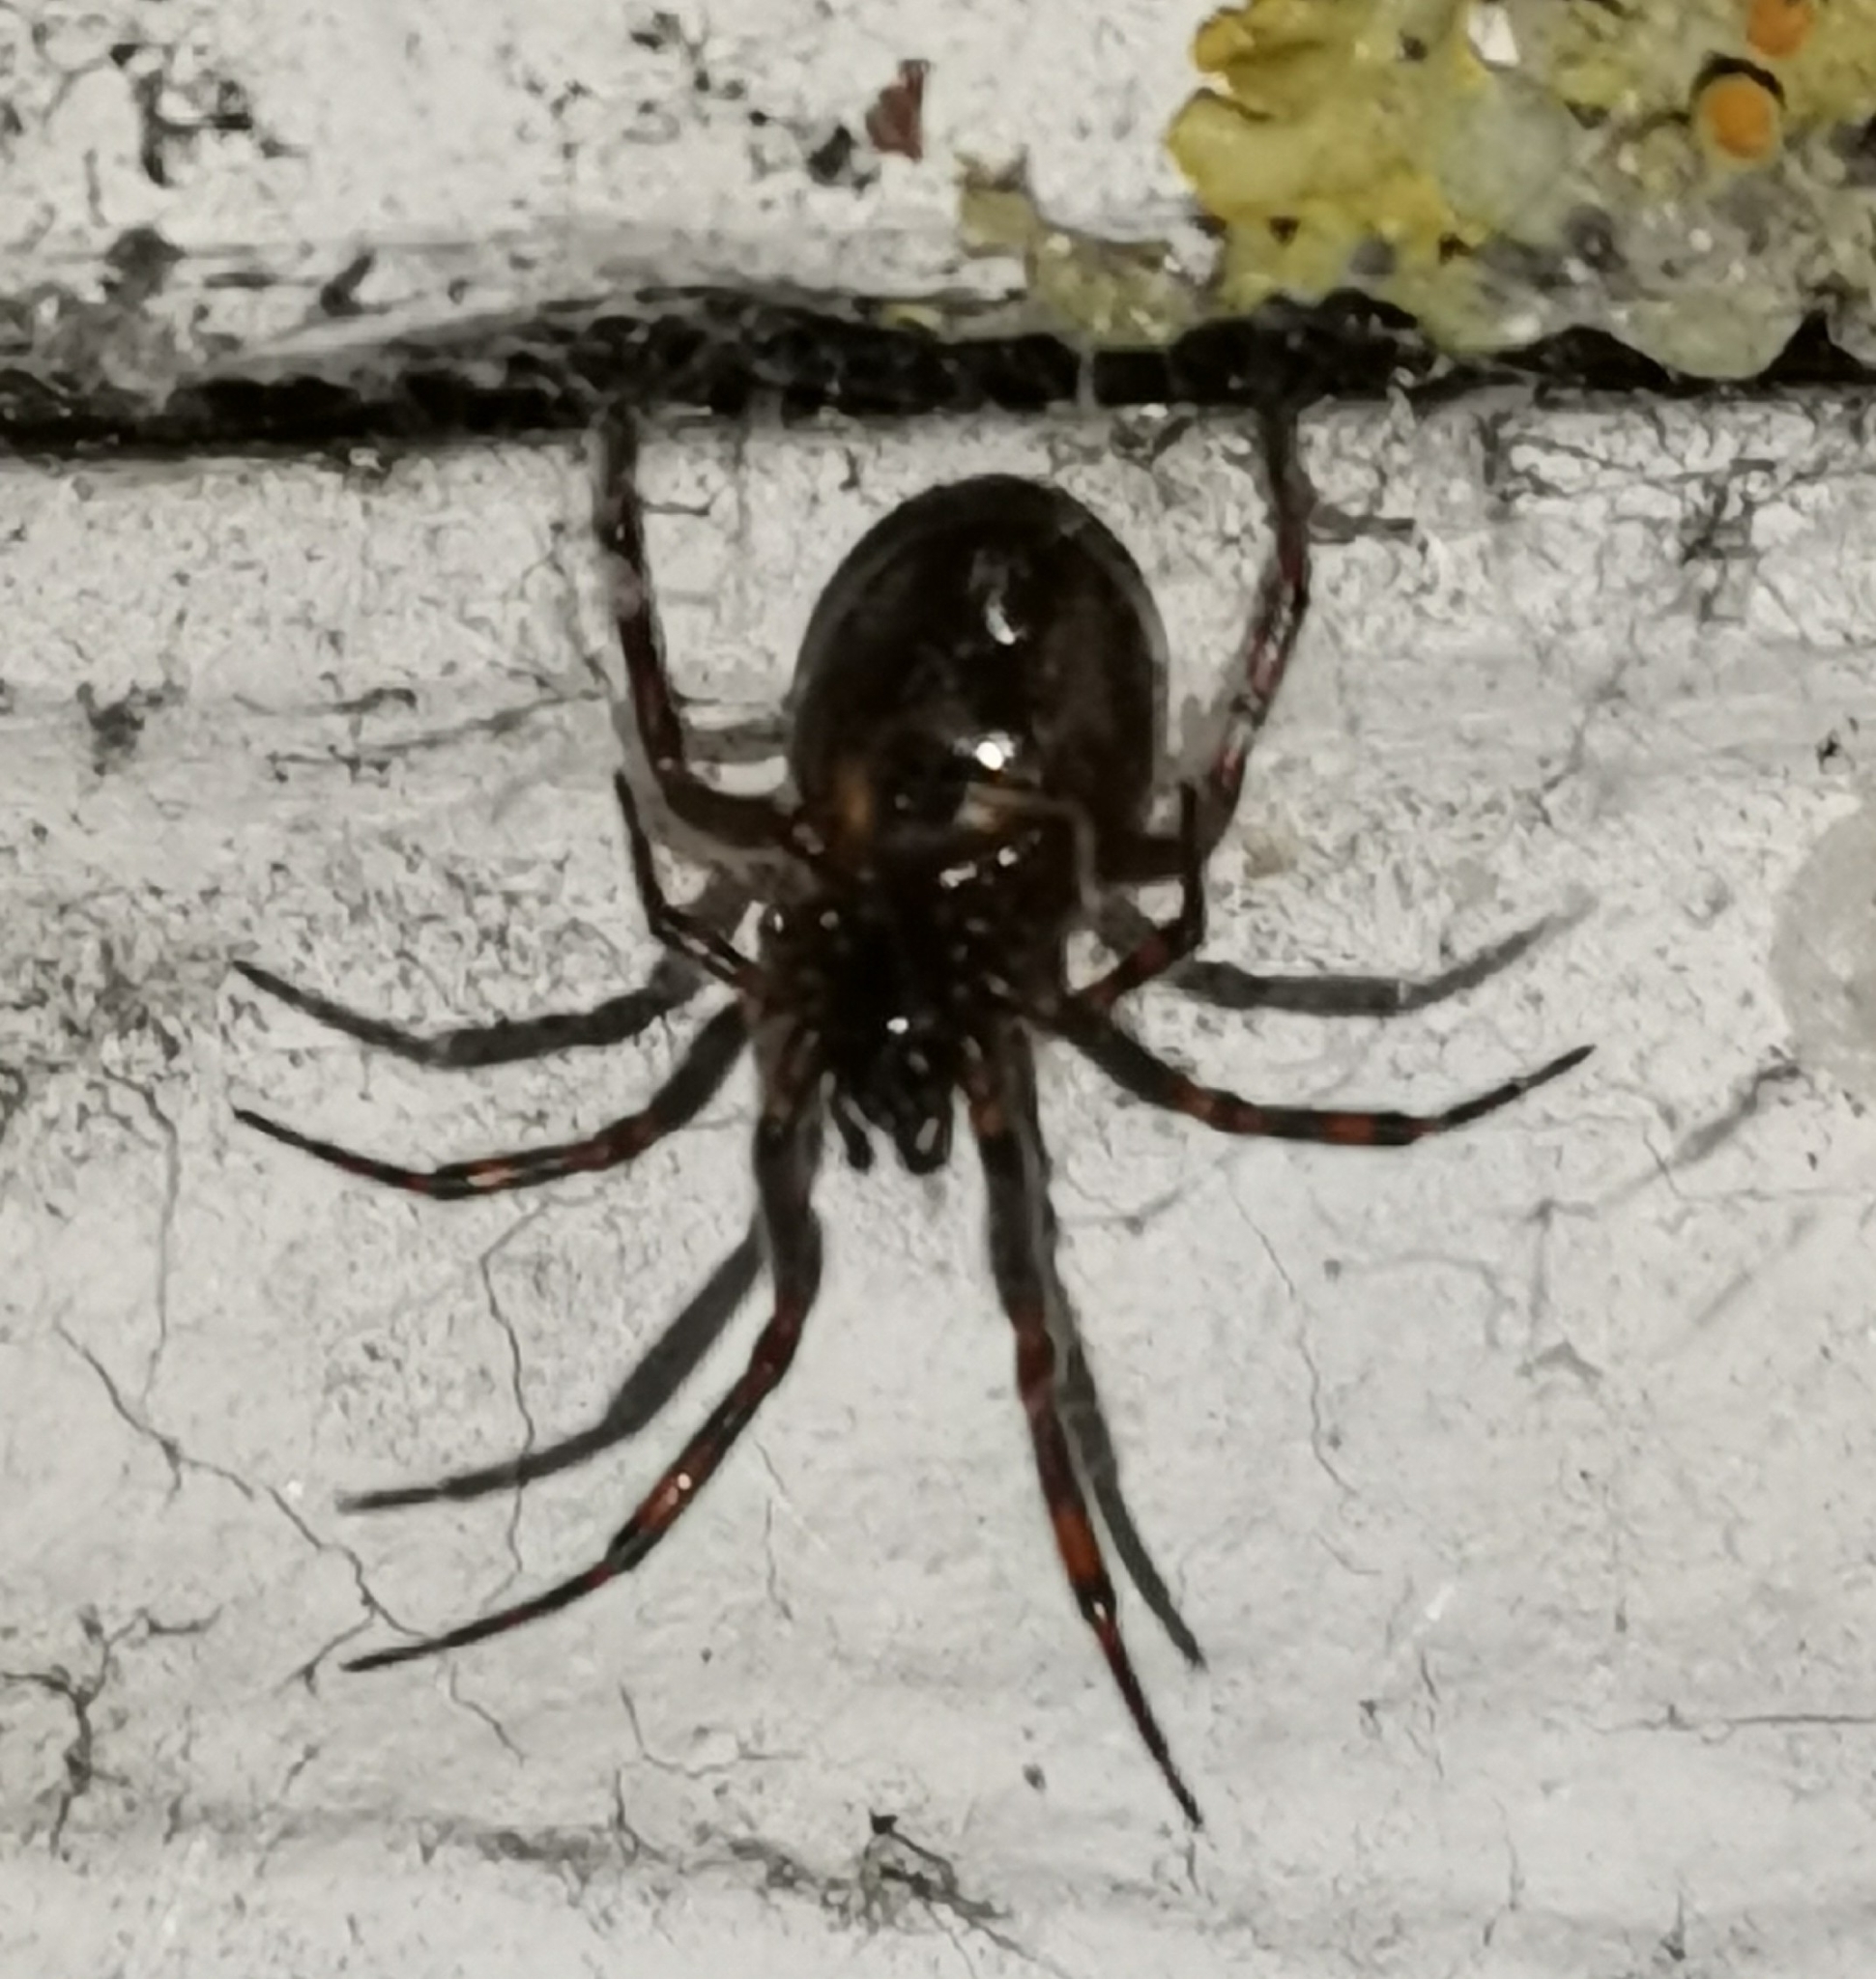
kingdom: Animalia
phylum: Arthropoda
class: Arachnida
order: Araneae
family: Theridiidae
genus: Steatoda
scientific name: Steatoda bipunctata
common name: False widow
